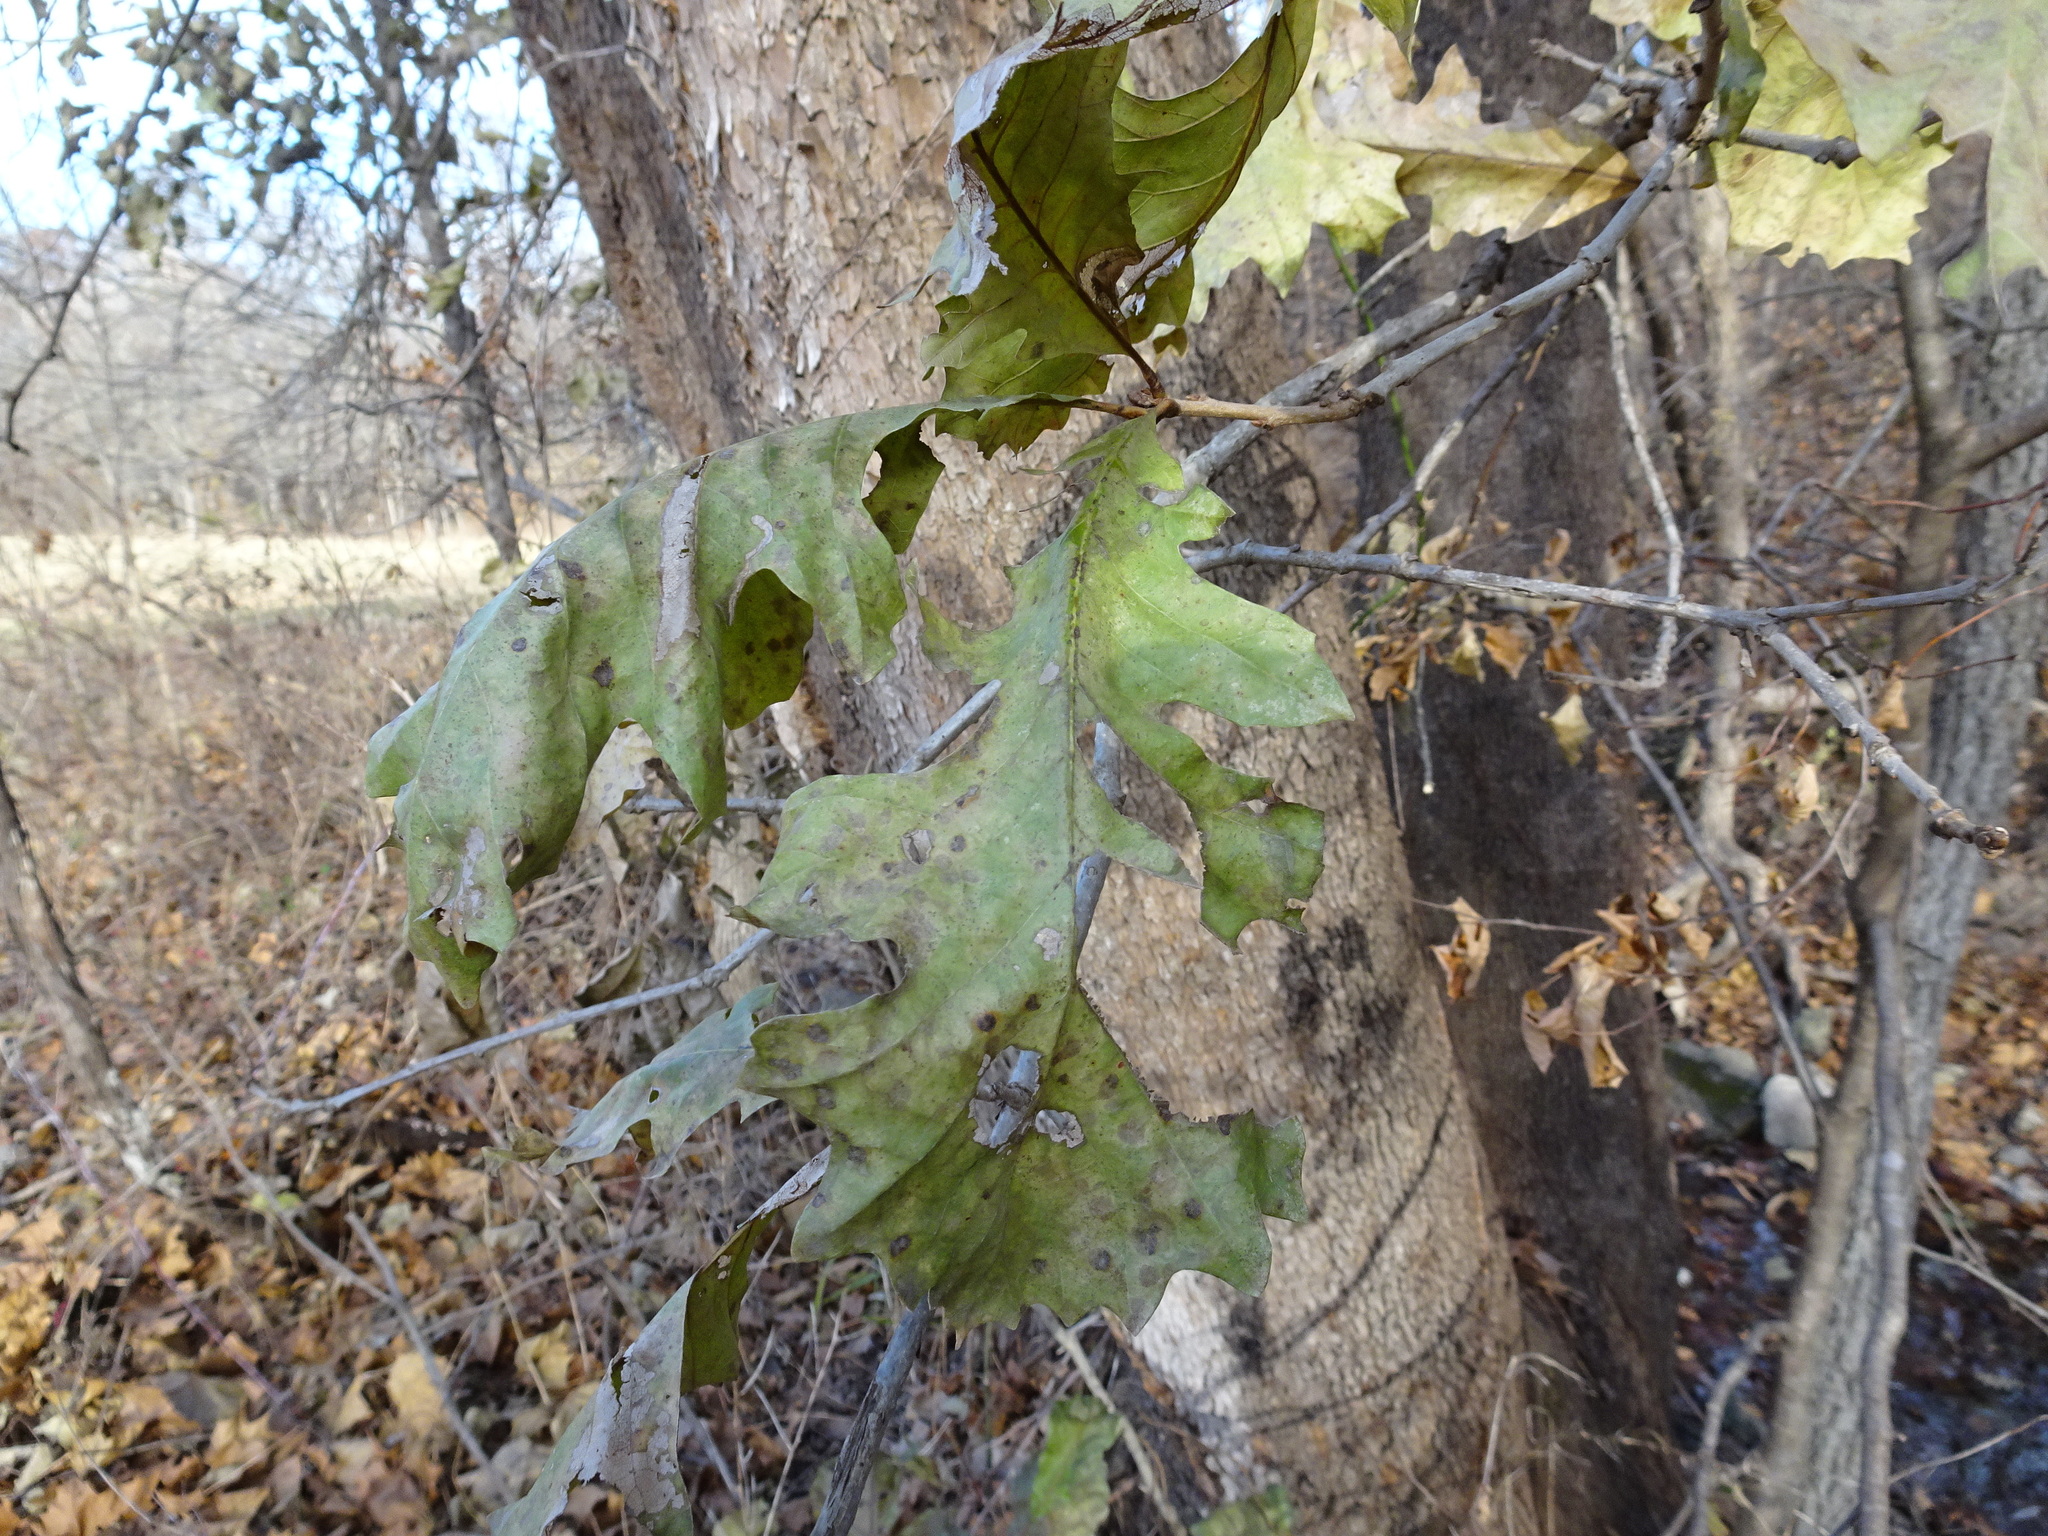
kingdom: Plantae
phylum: Tracheophyta
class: Magnoliopsida
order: Fagales
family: Fagaceae
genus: Quercus
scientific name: Quercus macrocarpa
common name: Bur oak
